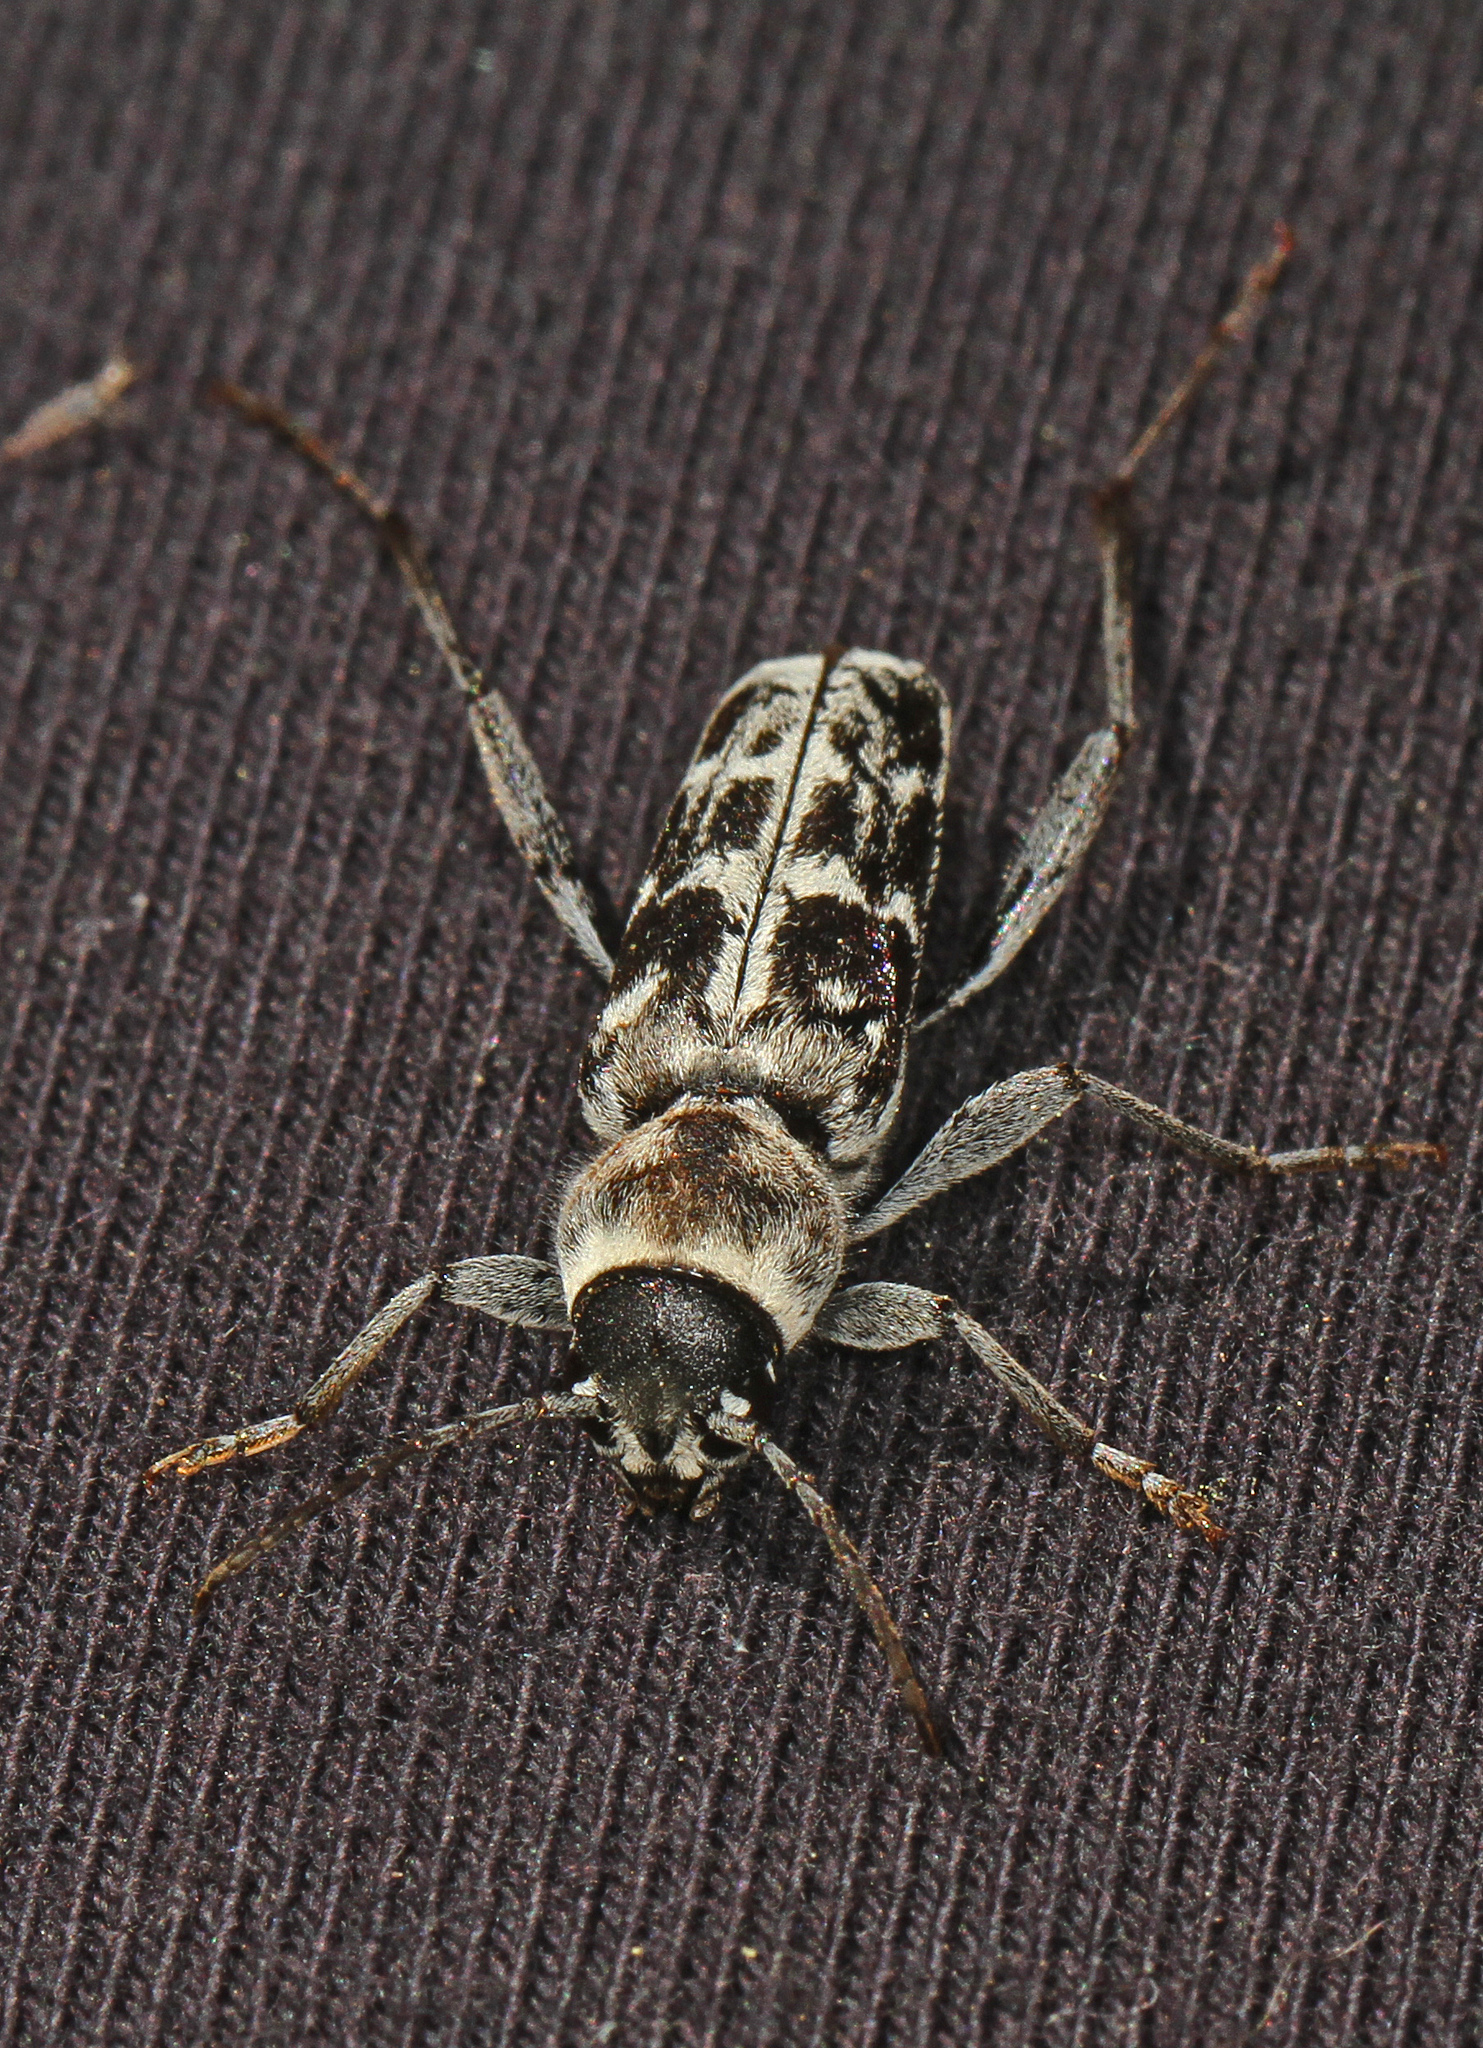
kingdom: Animalia
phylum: Arthropoda
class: Insecta
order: Coleoptera
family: Cerambycidae
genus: Xylotrechus
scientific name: Xylotrechus albonotatus
